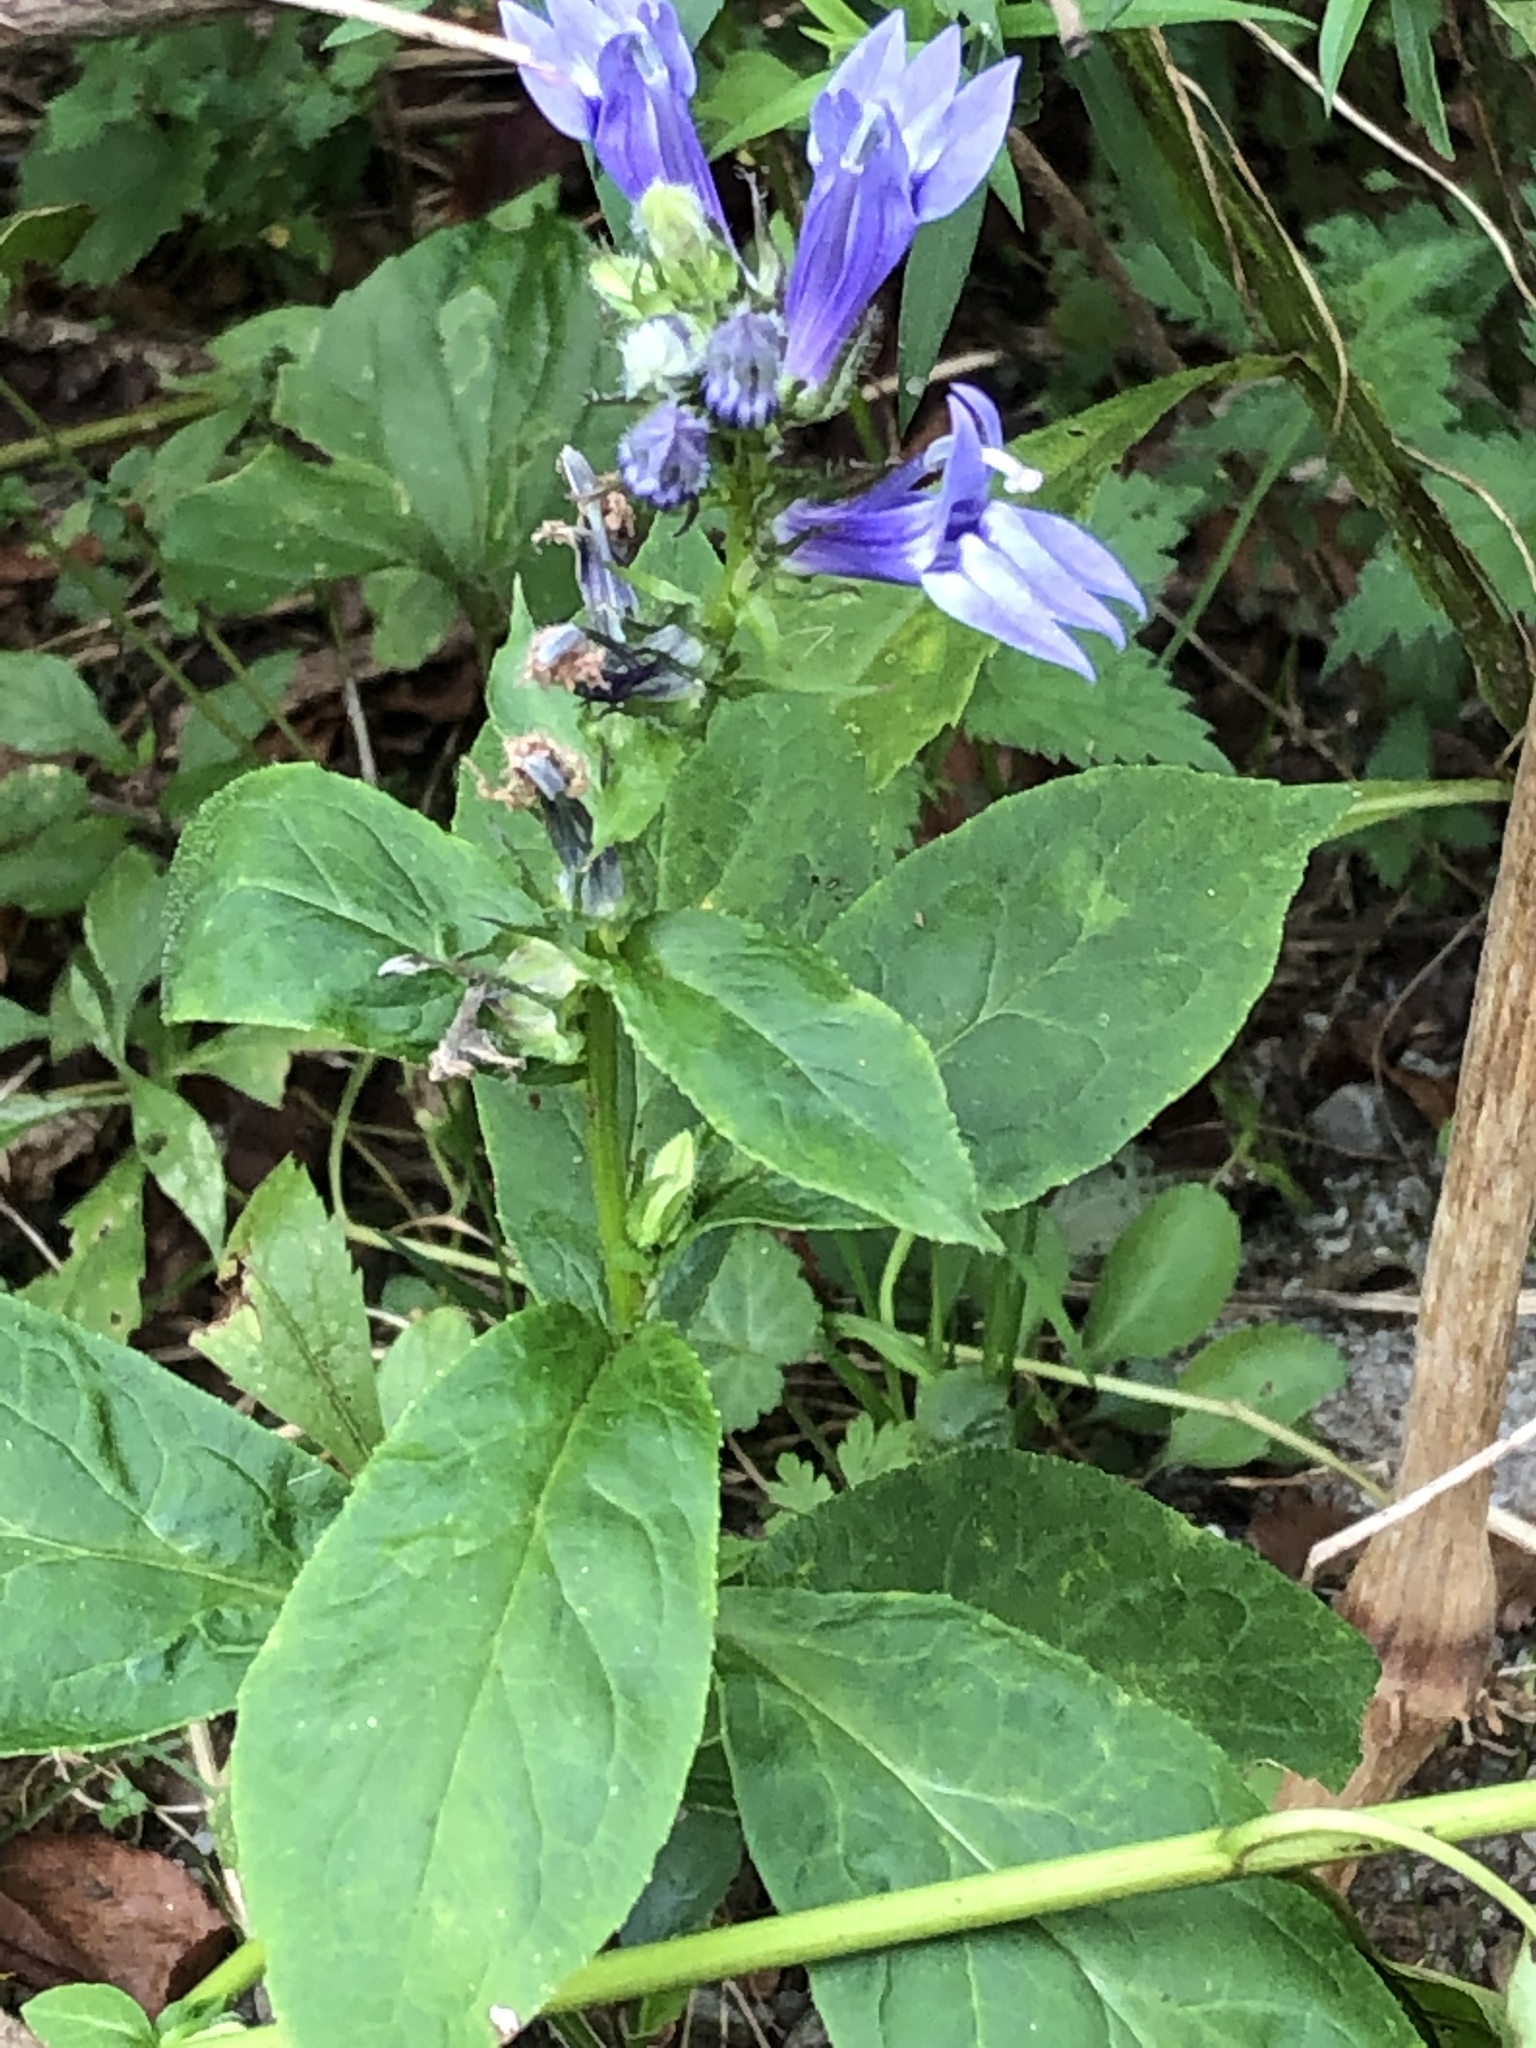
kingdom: Plantae
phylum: Tracheophyta
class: Magnoliopsida
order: Asterales
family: Campanulaceae
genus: Lobelia
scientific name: Lobelia siphilitica
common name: Great lobelia
